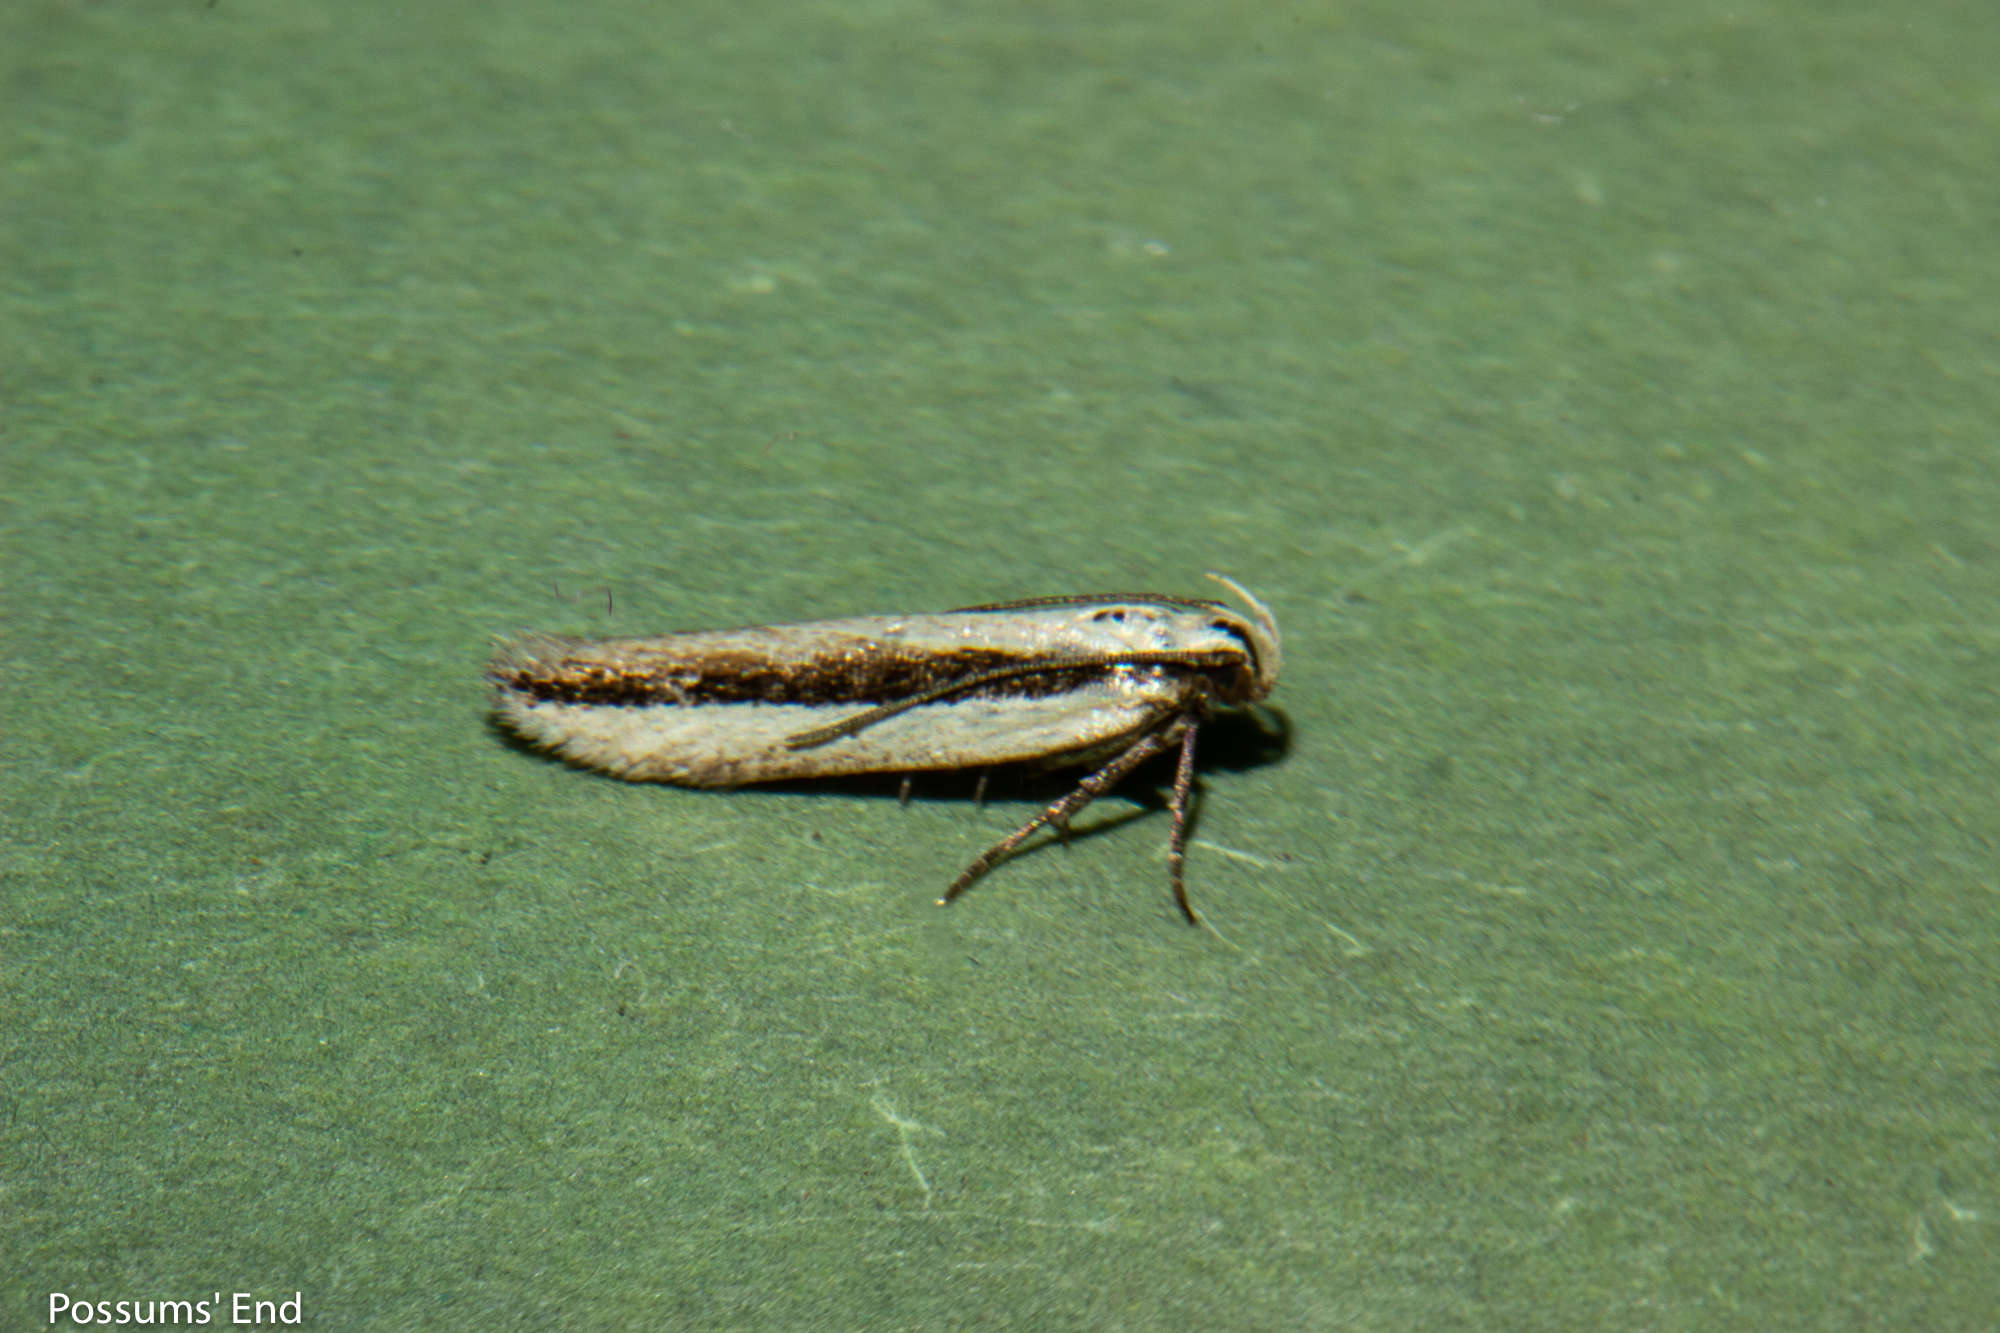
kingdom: Animalia
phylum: Arthropoda
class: Insecta
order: Lepidoptera
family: Gelechiidae
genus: Kiwaia
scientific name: Kiwaia monophragma
